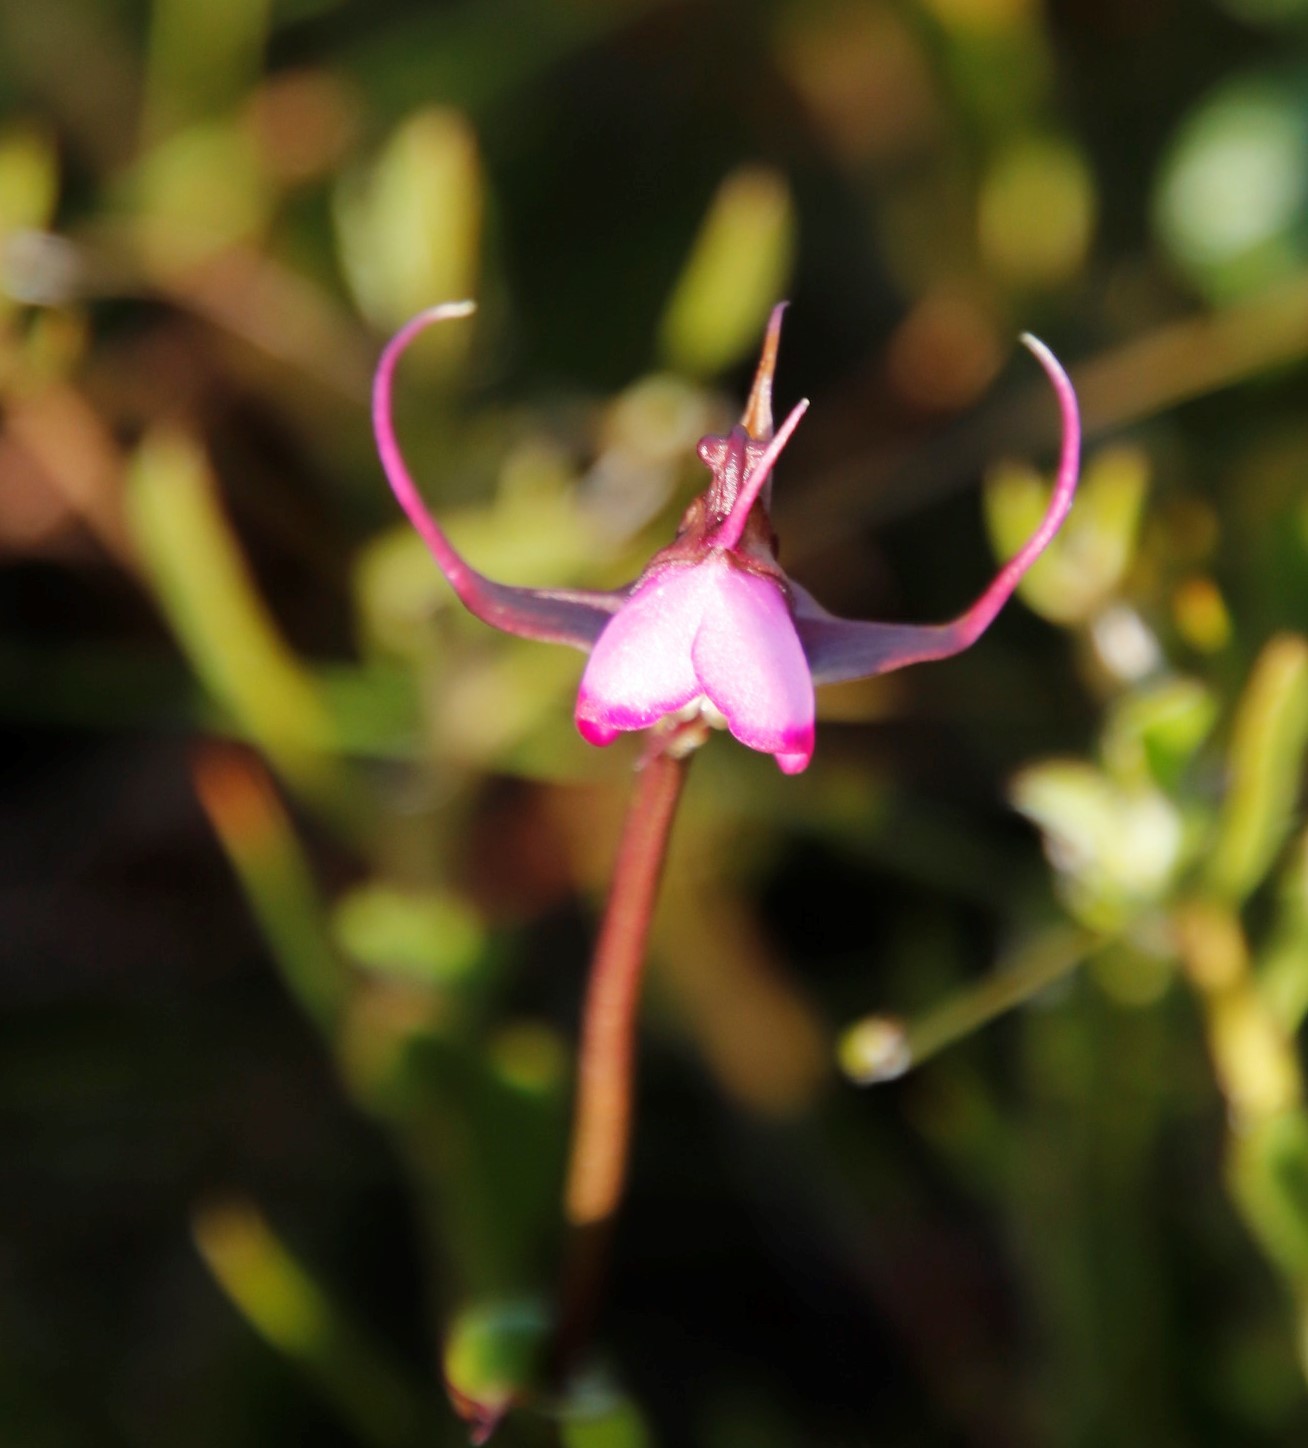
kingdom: Plantae
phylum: Tracheophyta
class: Liliopsida
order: Asparagales
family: Orchidaceae
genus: Disperis
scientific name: Disperis capensis
